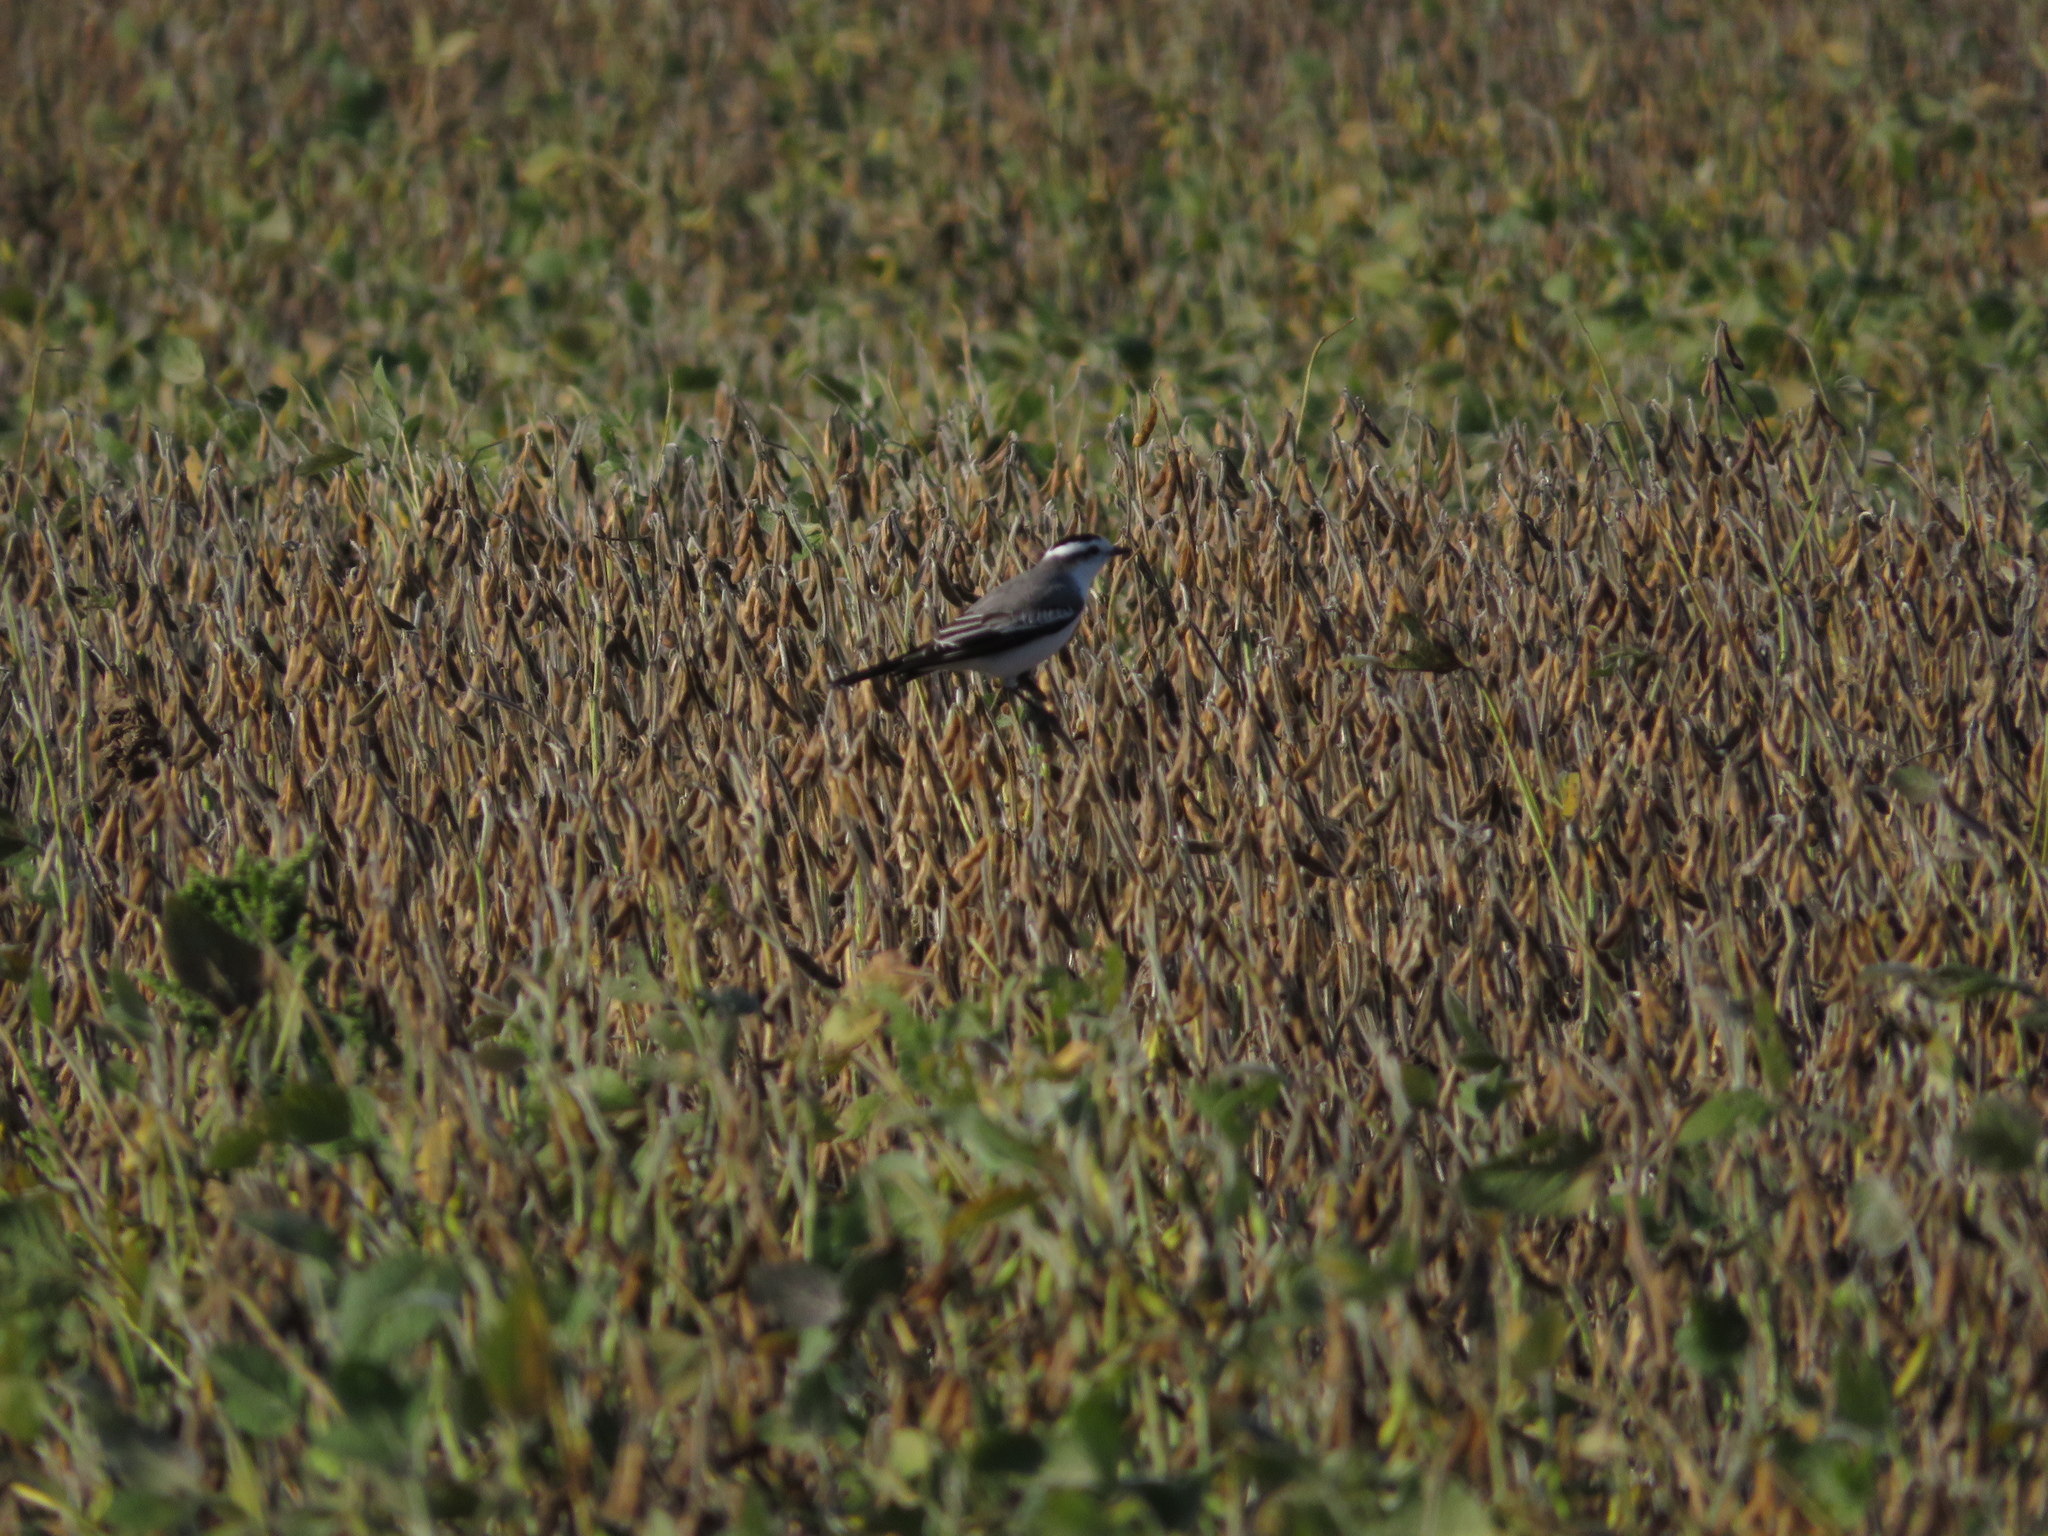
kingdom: Animalia
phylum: Chordata
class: Aves
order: Passeriformes
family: Tyrannidae
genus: Xolmis
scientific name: Xolmis coronatus
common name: Black-crowned monjita
